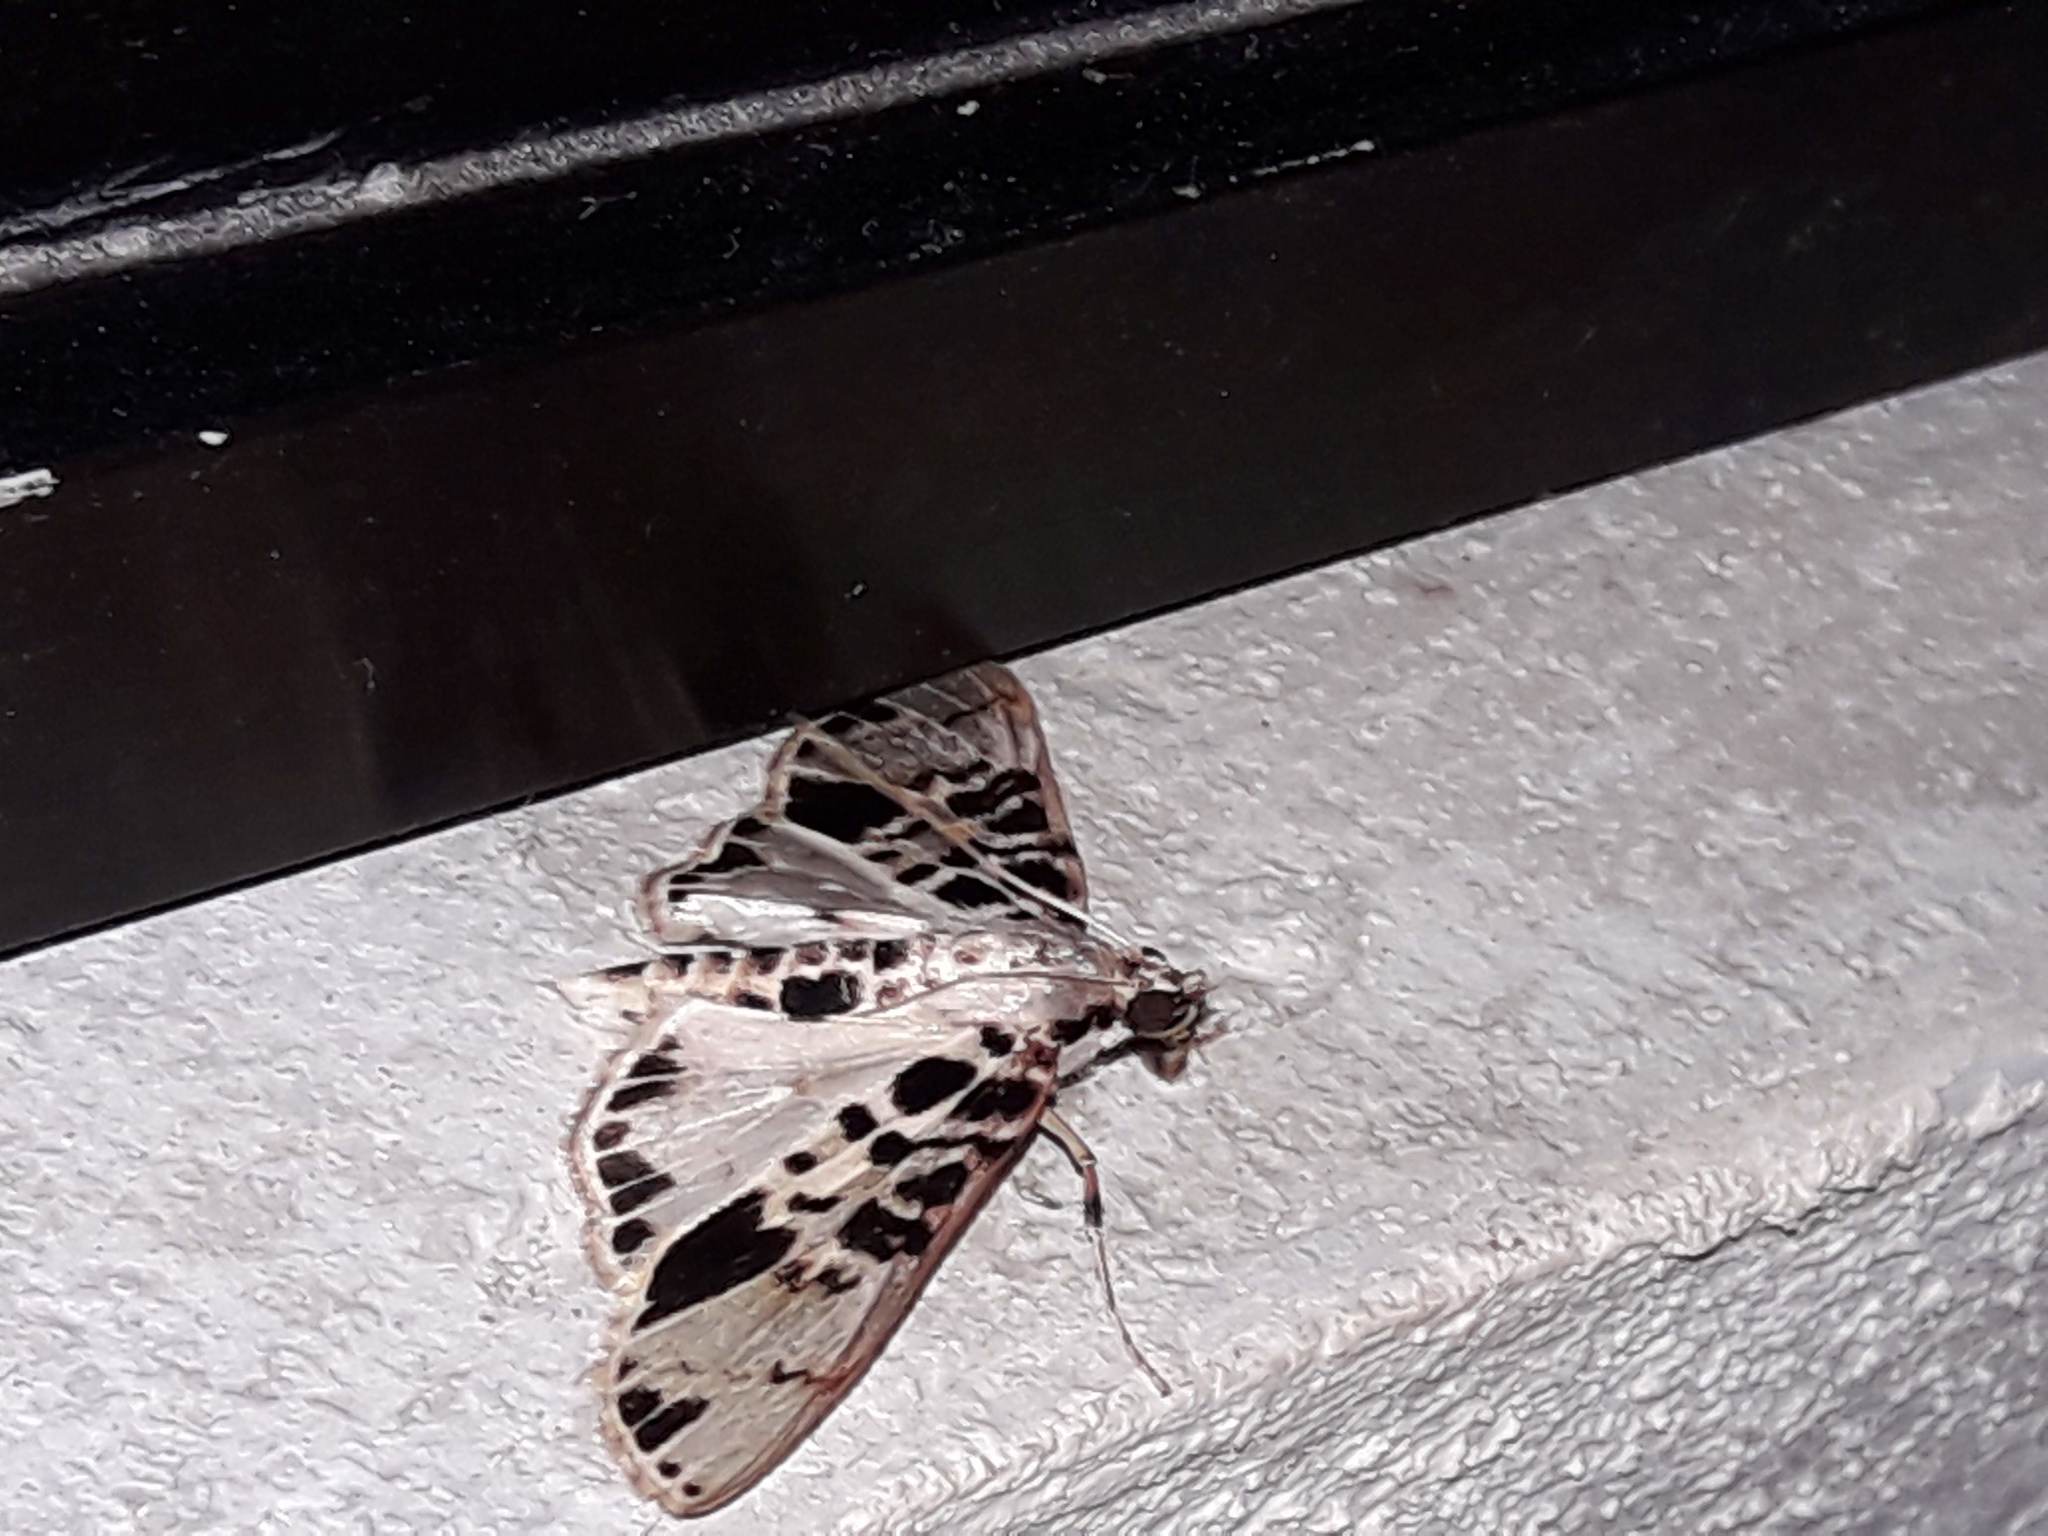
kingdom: Animalia
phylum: Arthropoda
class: Insecta
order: Lepidoptera
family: Crambidae
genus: Azochis
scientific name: Azochis pieralis
